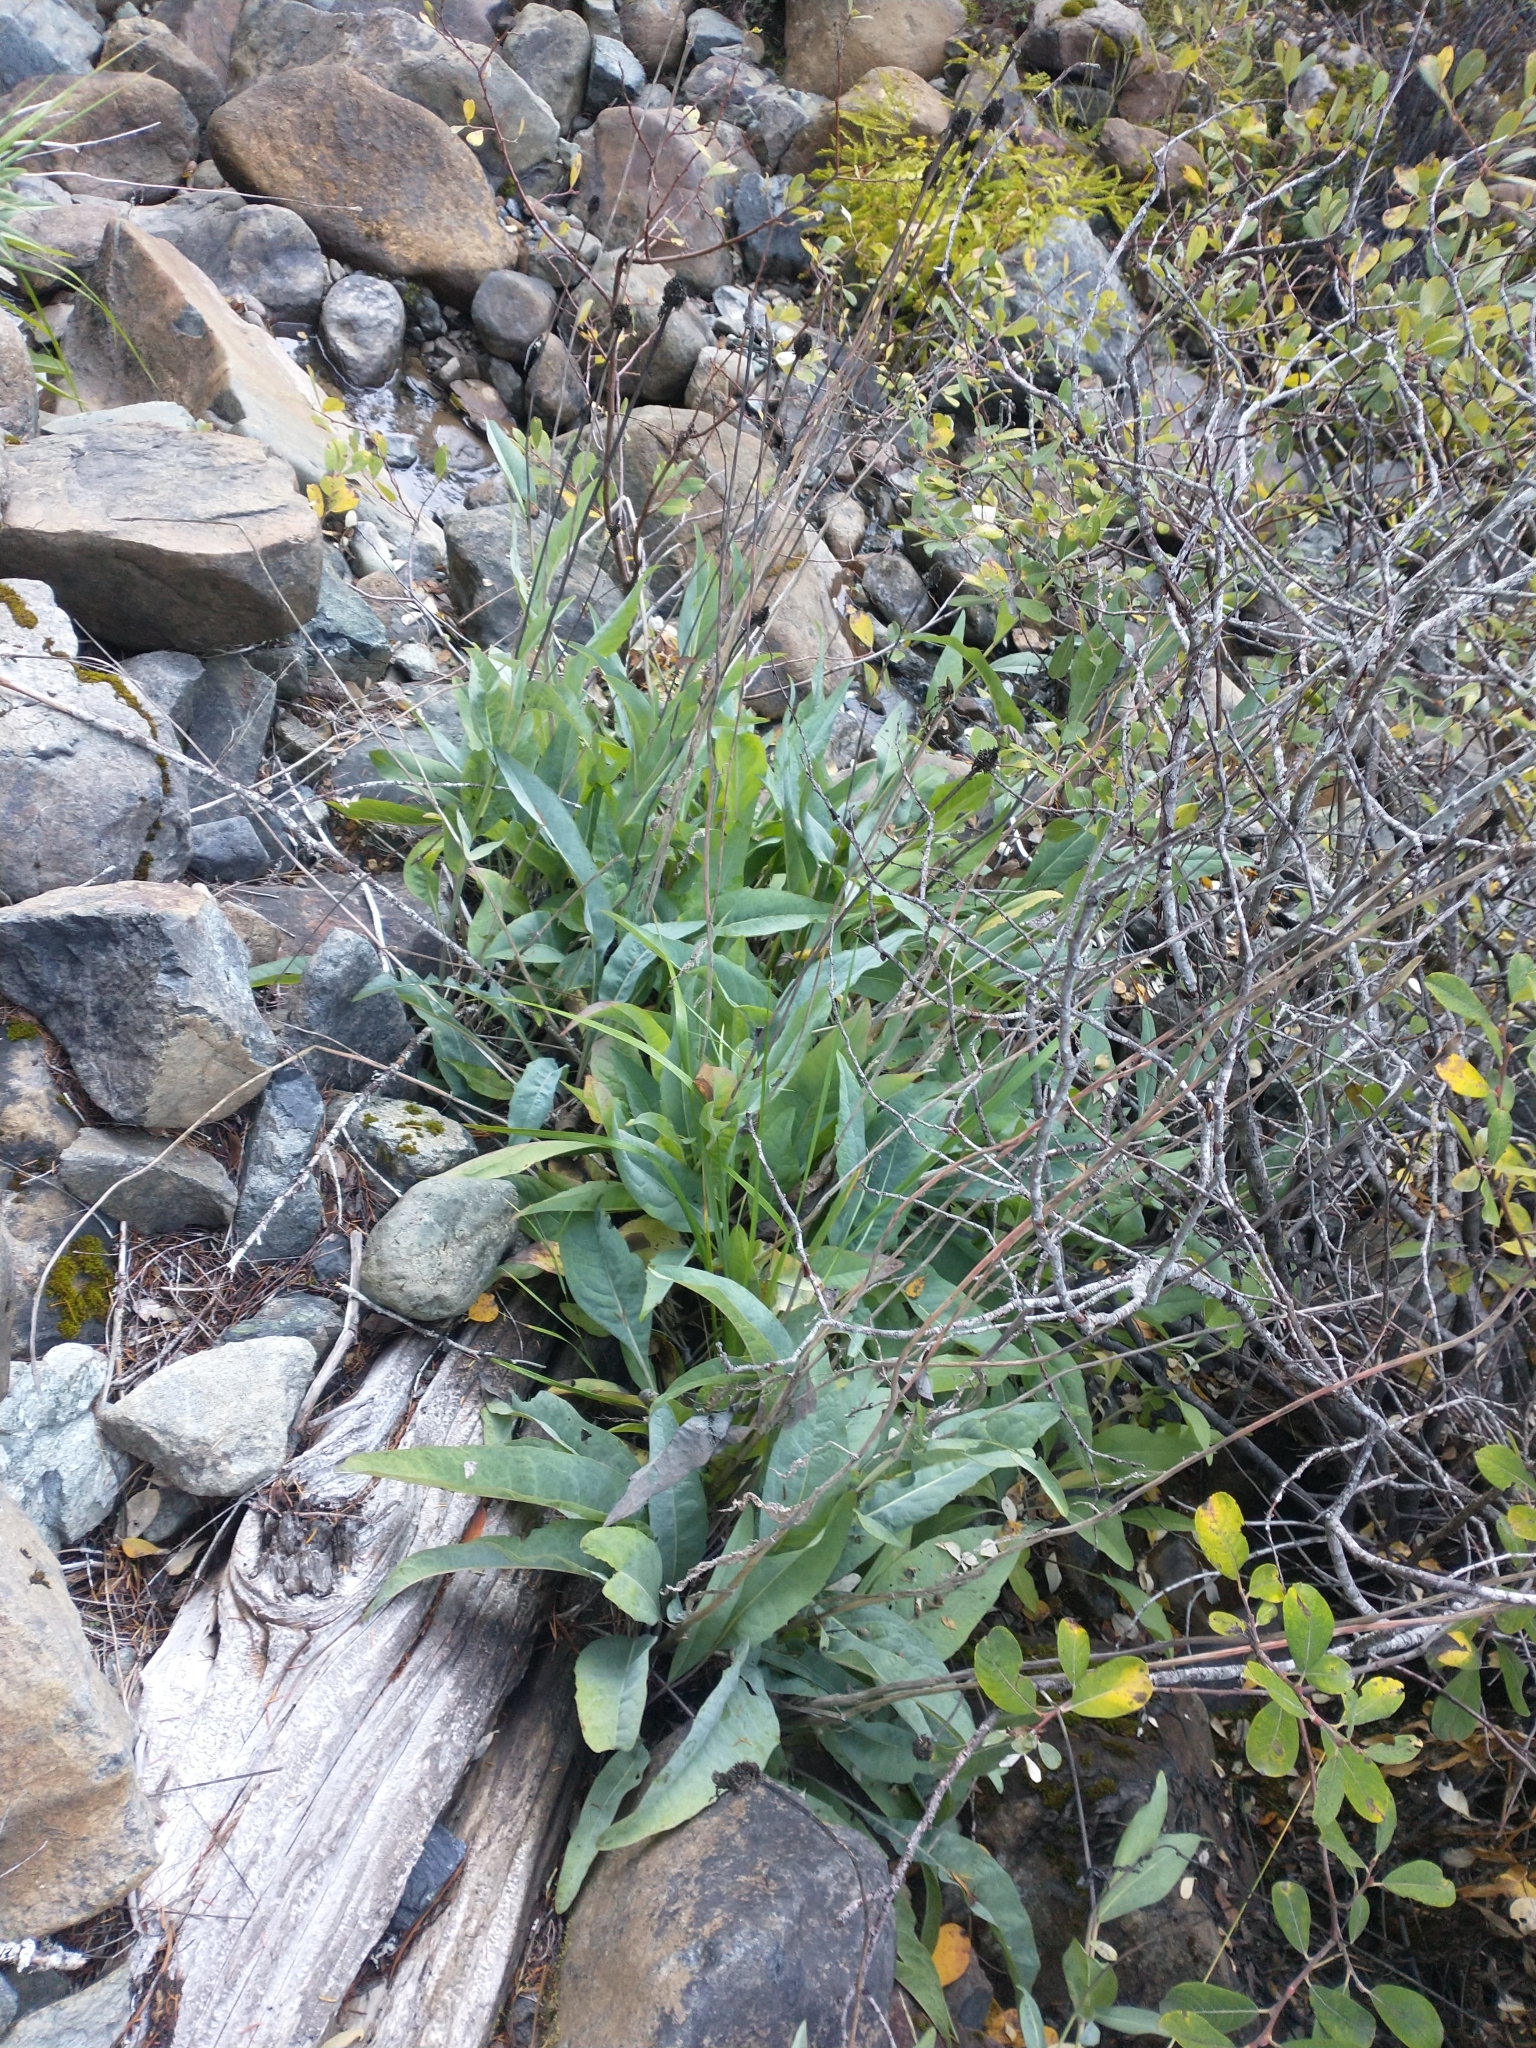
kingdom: Plantae
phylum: Tracheophyta
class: Magnoliopsida
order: Asterales
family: Asteraceae
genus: Rudbeckia
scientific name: Rudbeckia glaucescens
